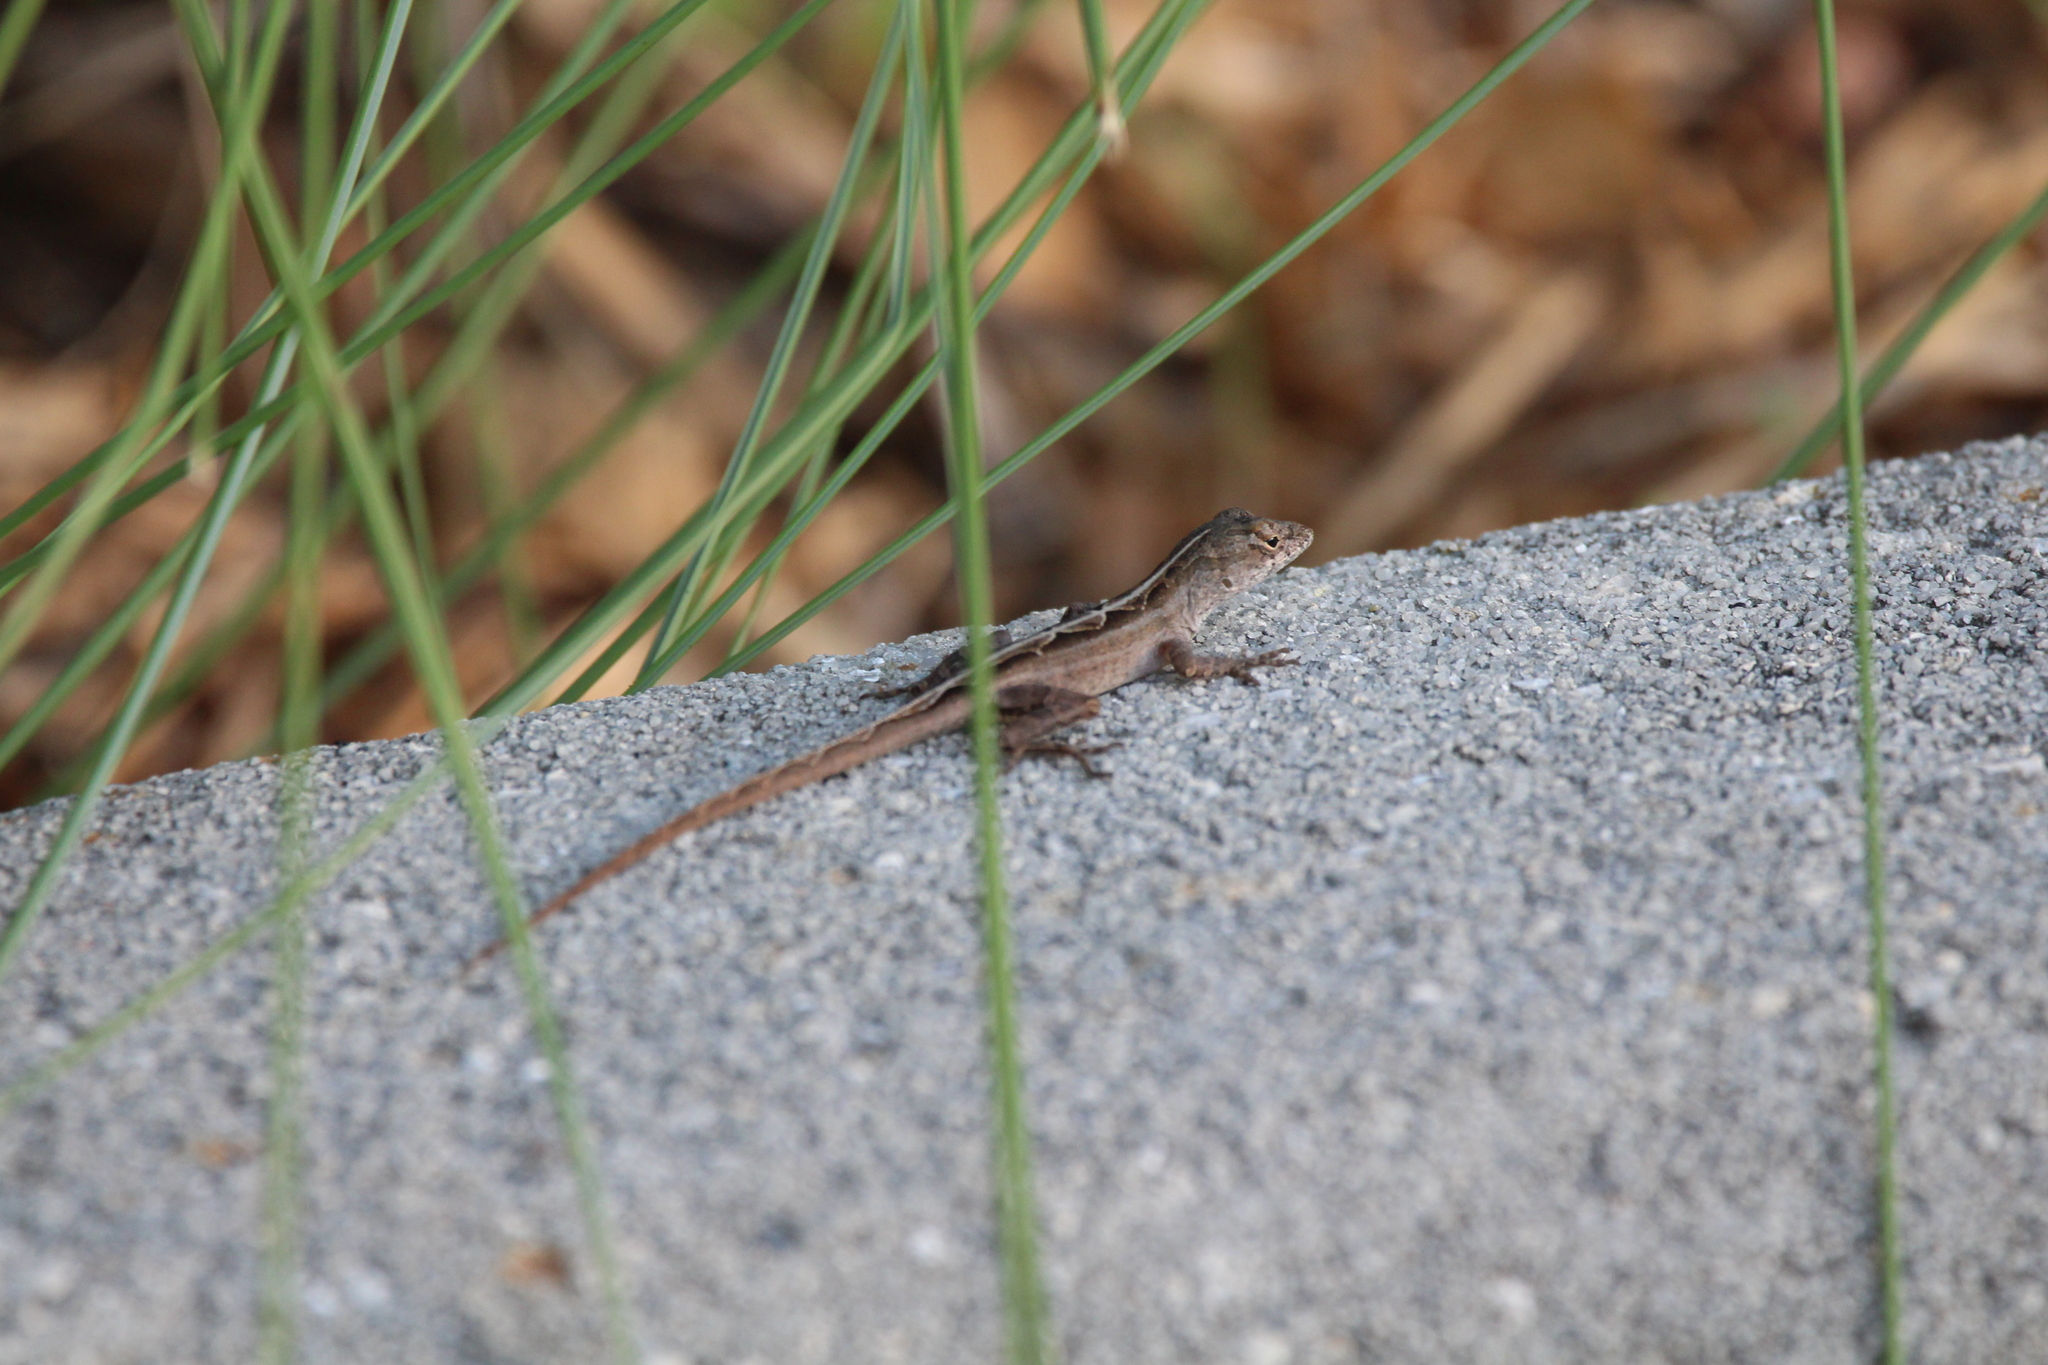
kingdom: Animalia
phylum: Chordata
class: Squamata
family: Dactyloidae
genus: Anolis
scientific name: Anolis sagrei
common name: Brown anole
